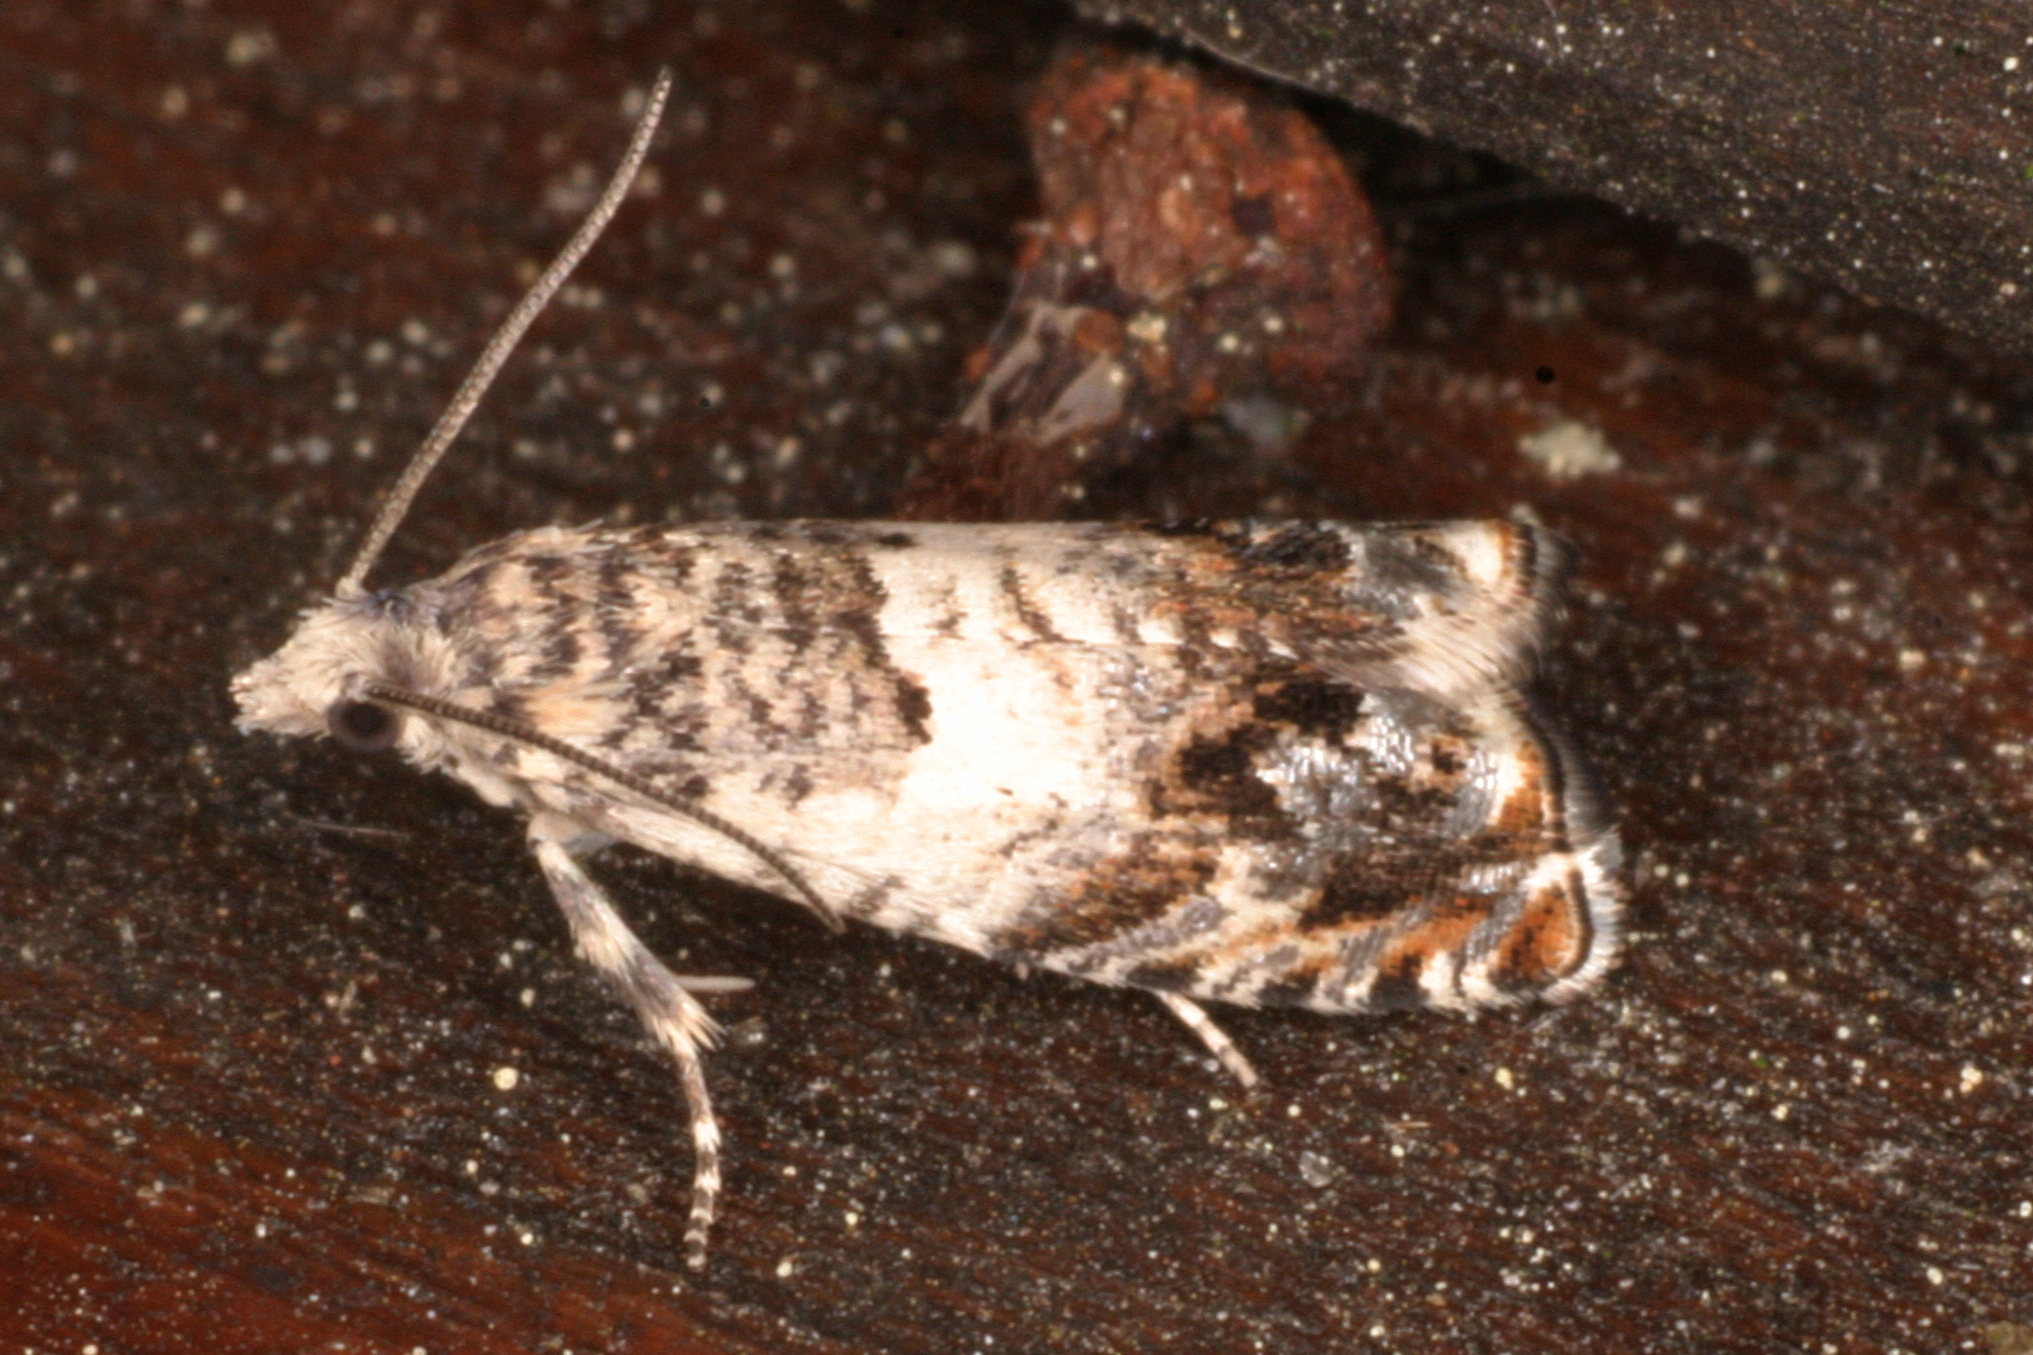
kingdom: Animalia
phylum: Arthropoda
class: Insecta
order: Lepidoptera
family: Tortricidae
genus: Epinotia
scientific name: Epinotia subocellana
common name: White sallow bell
